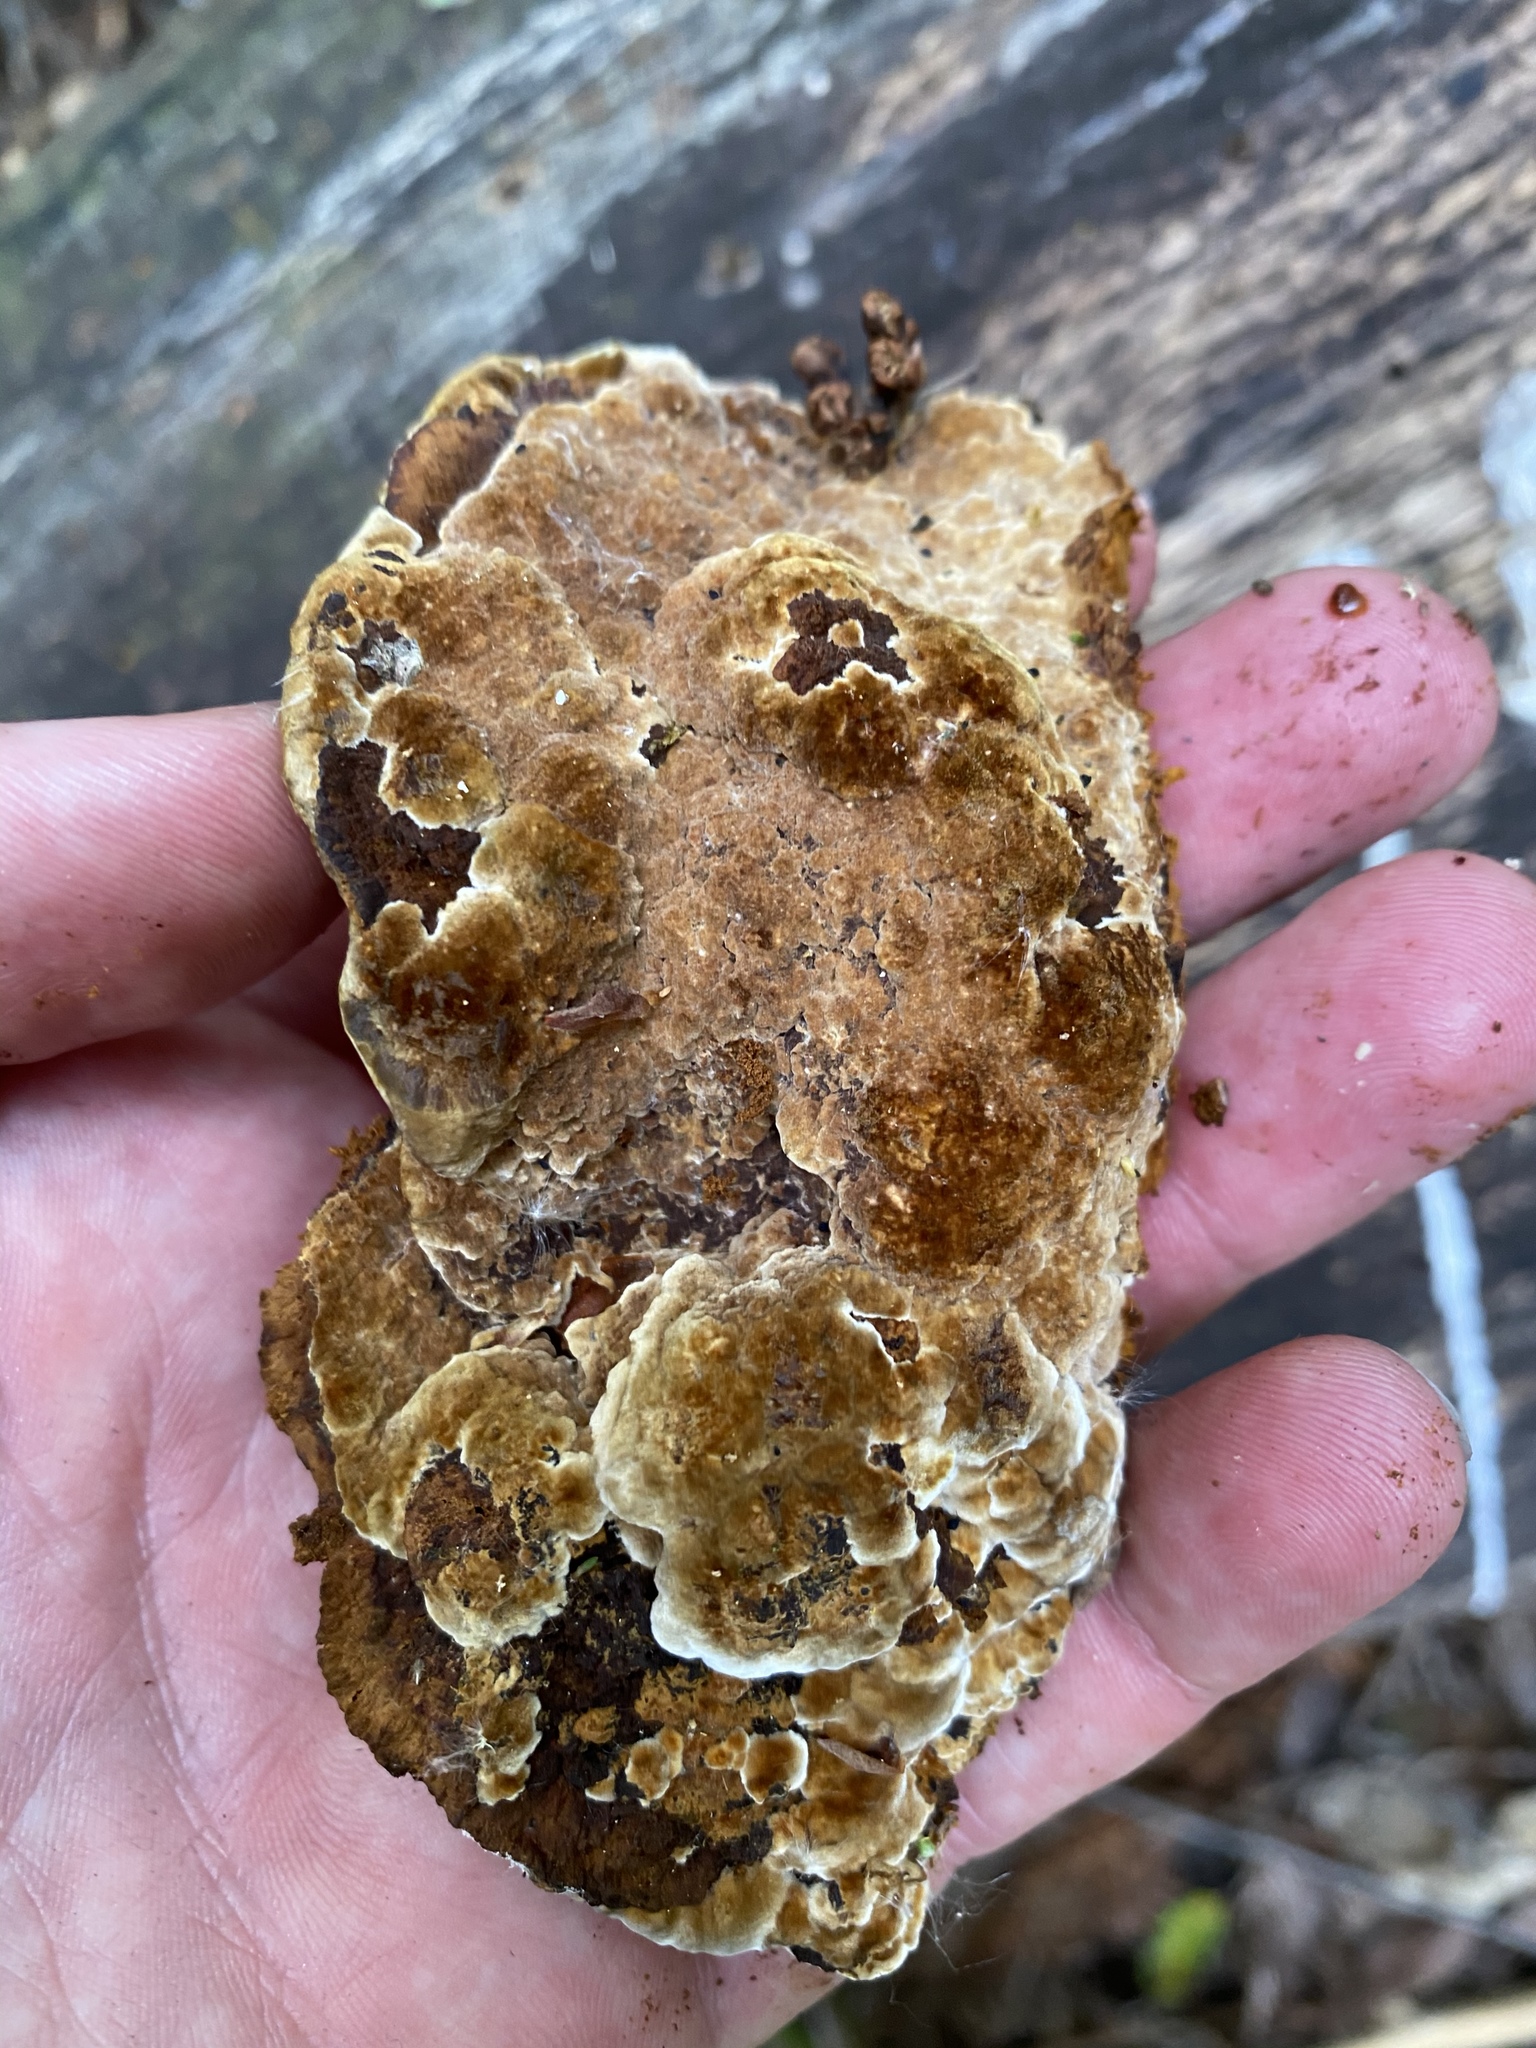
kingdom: Fungi
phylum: Basidiomycota
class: Agaricomycetes
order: Hymenochaetales
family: Hymenochaetaceae
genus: Phellinus
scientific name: Phellinus gilvus
